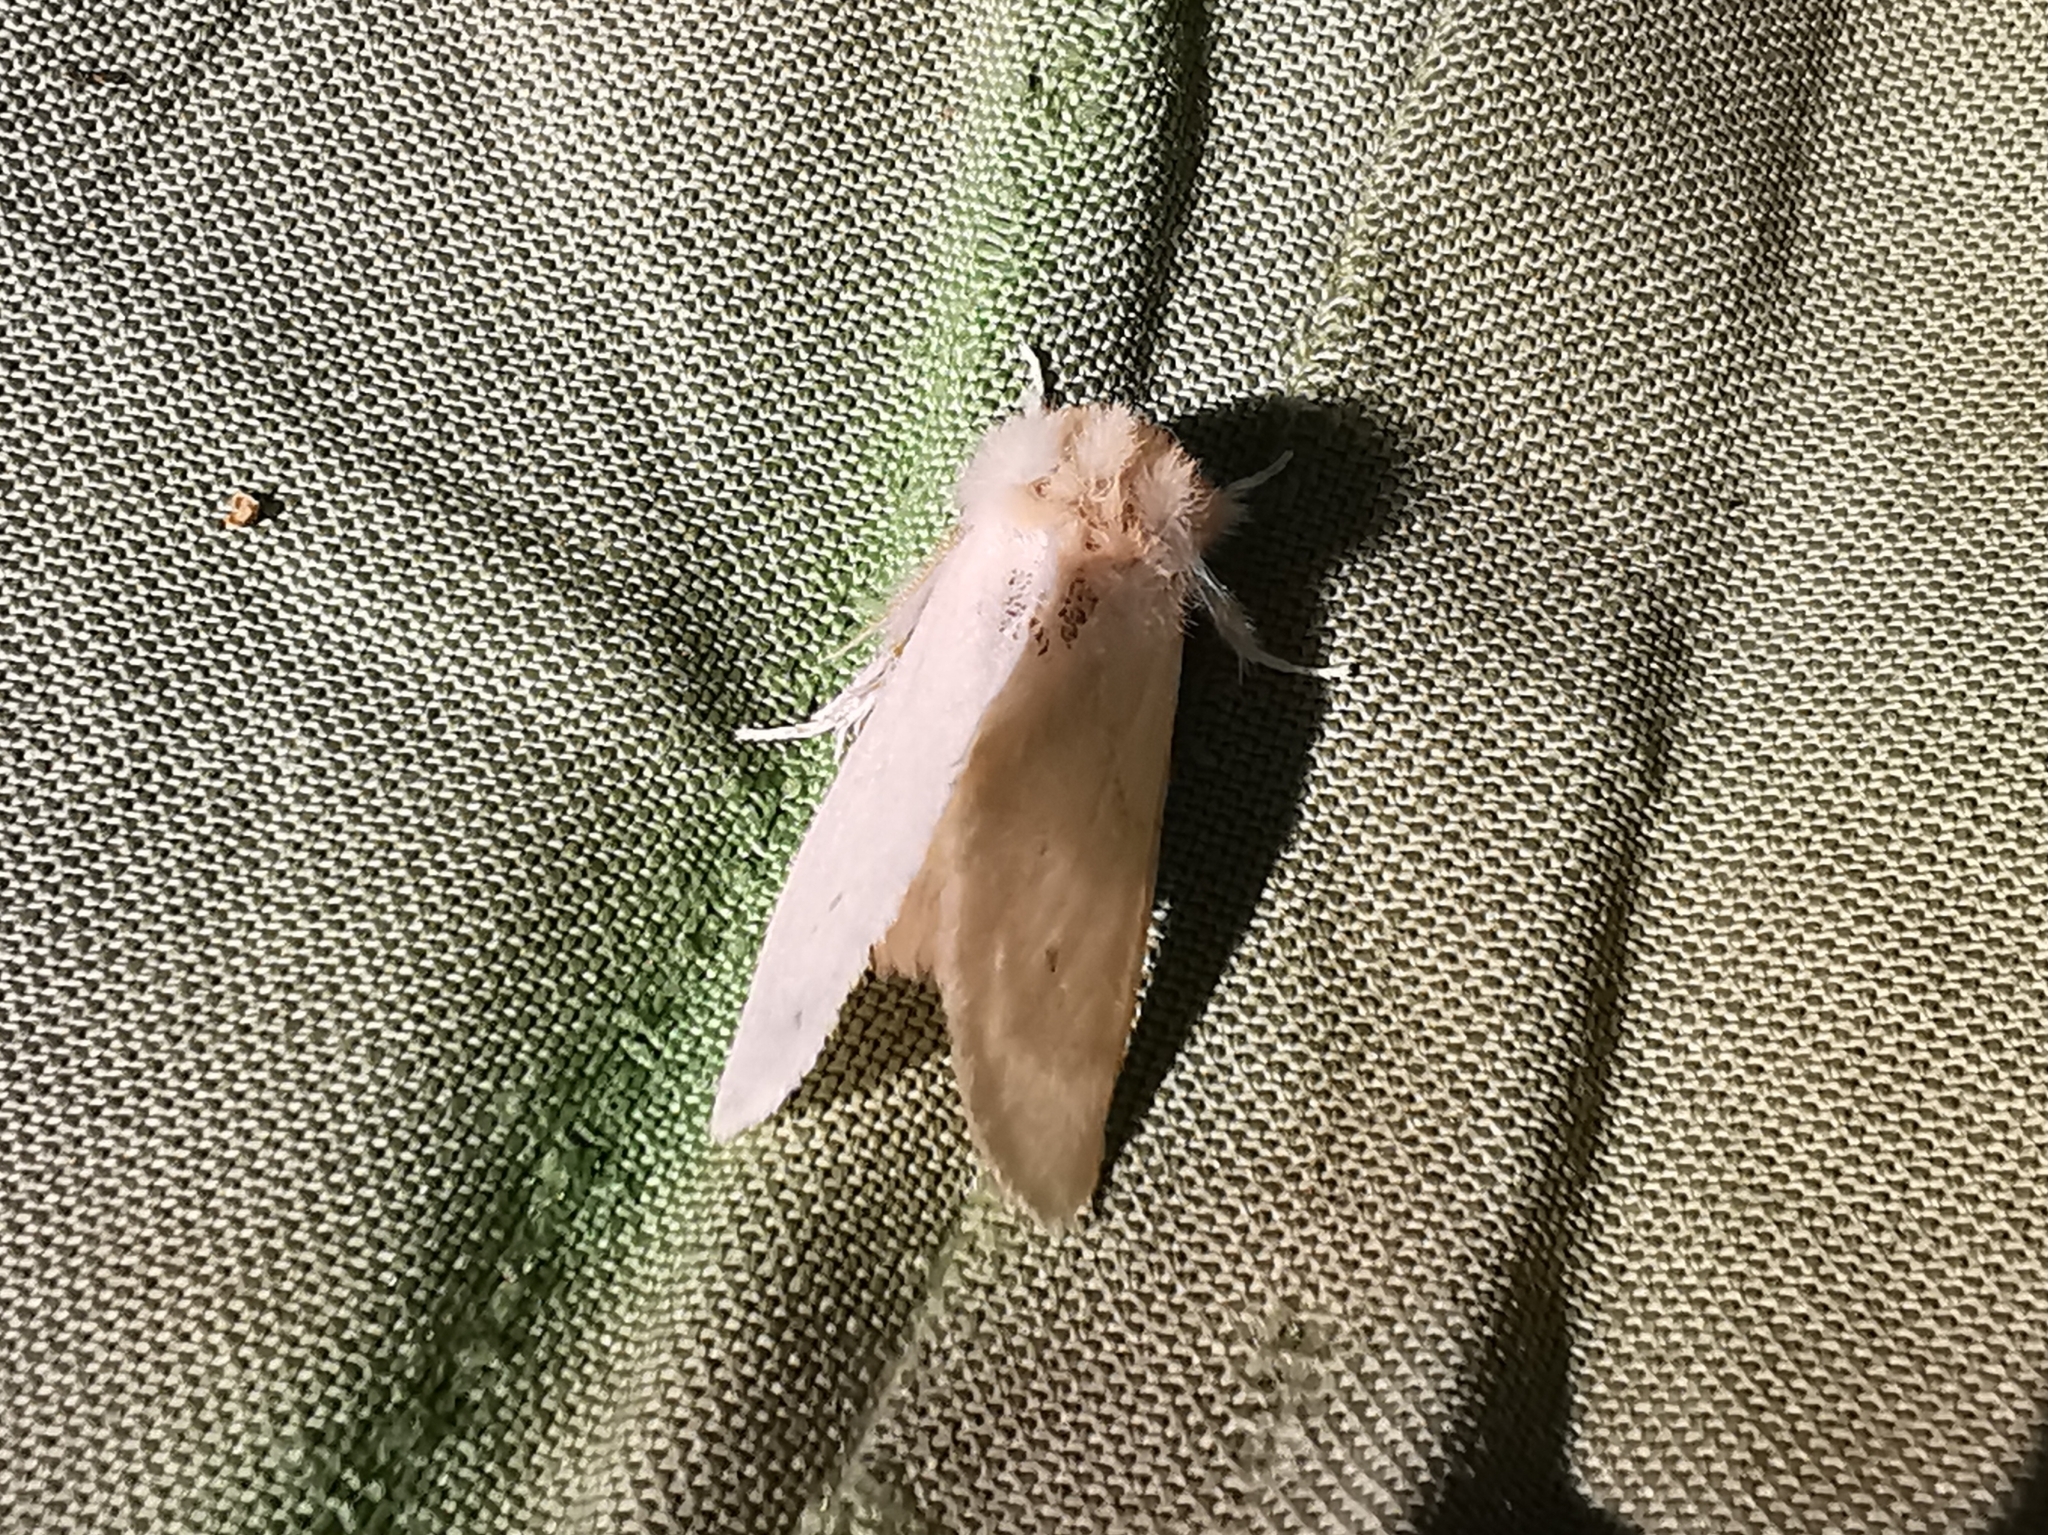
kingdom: Animalia
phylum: Arthropoda
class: Insecta
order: Lepidoptera
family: Notodontidae
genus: Leucodonta
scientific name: Leucodonta bicoloria
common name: White prominent
